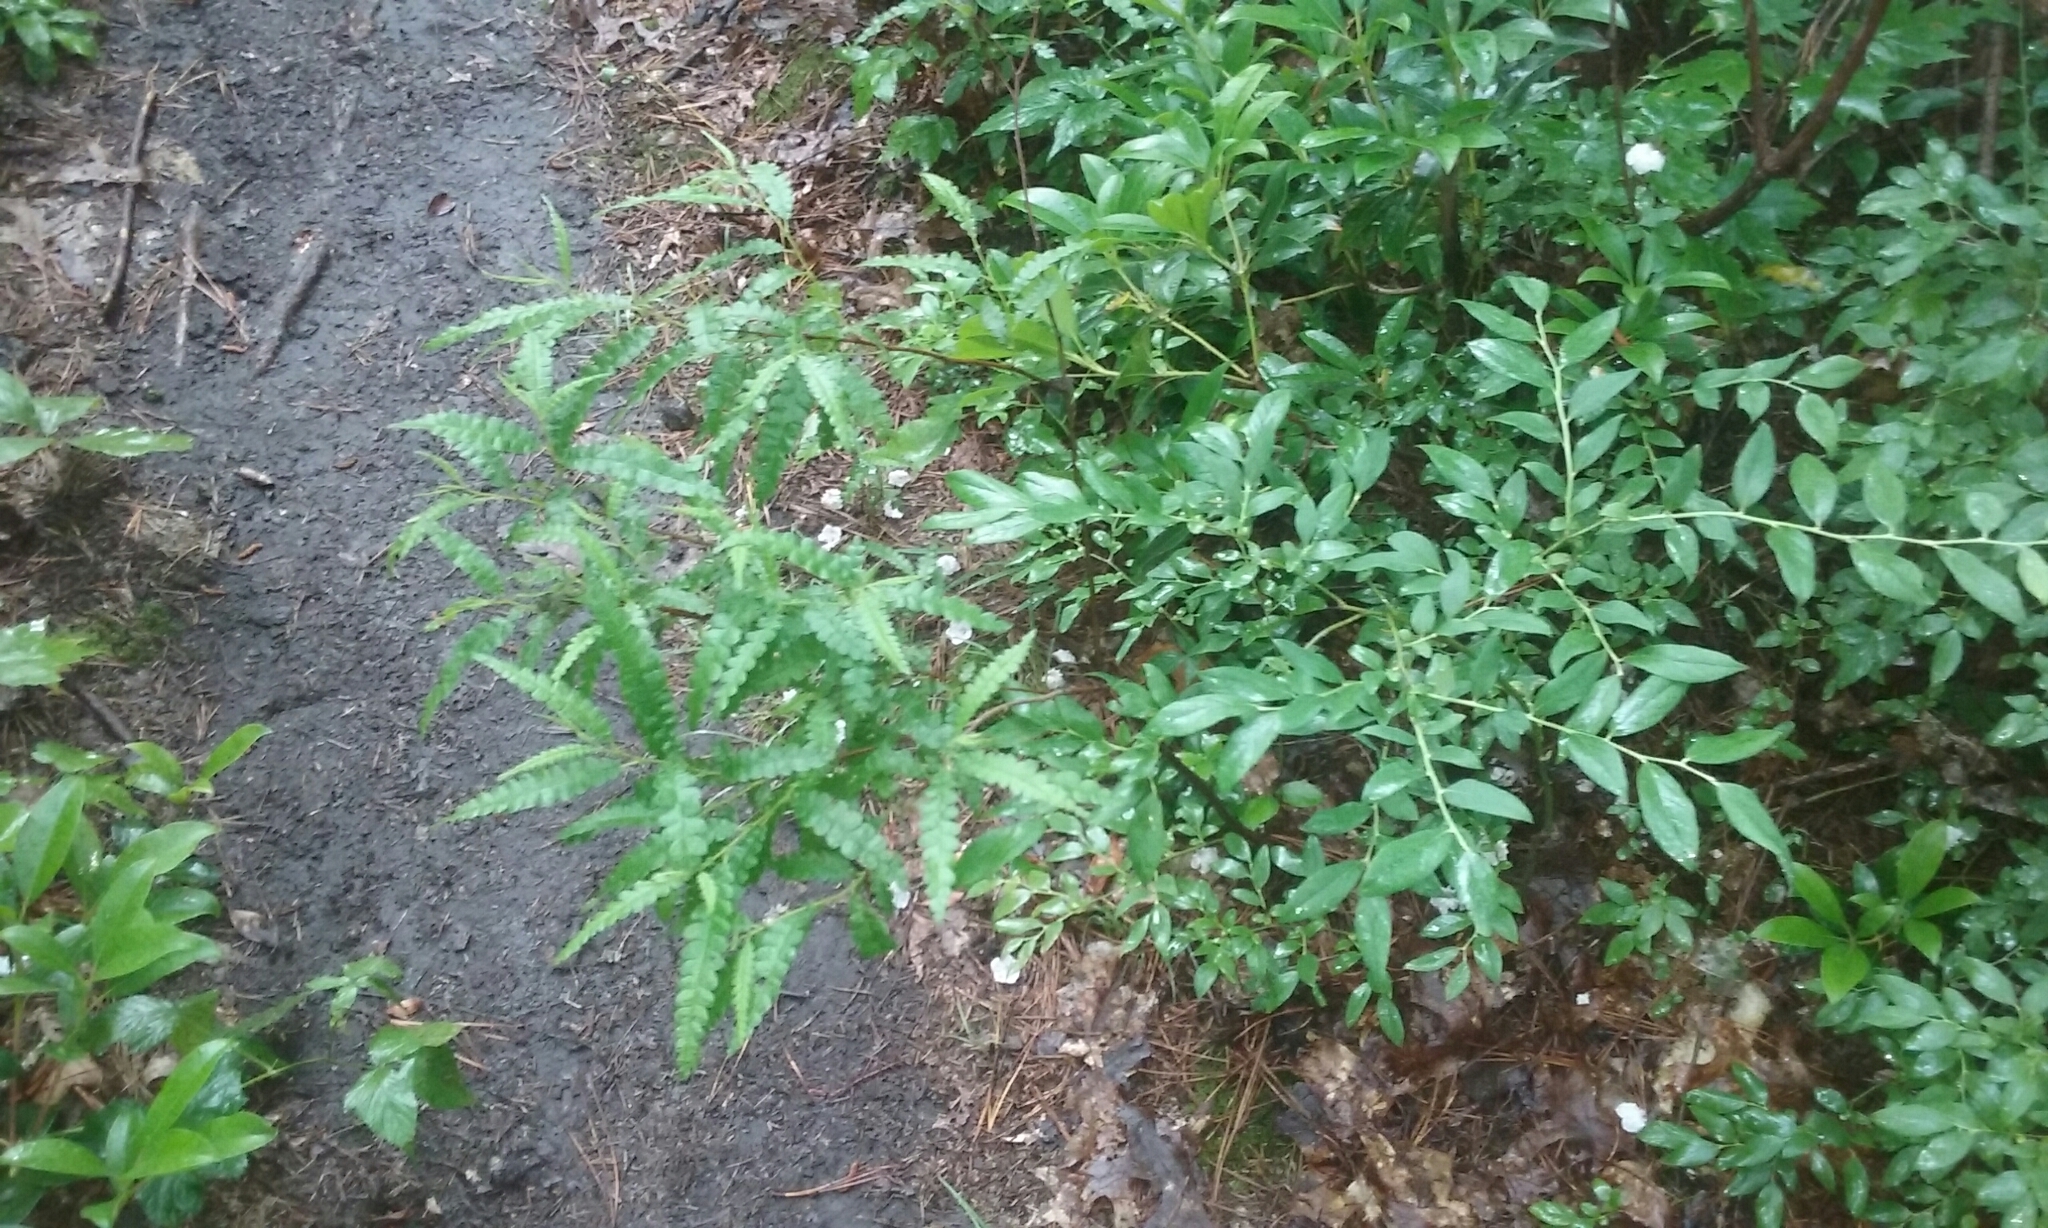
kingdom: Plantae
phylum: Tracheophyta
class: Magnoliopsida
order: Fagales
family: Myricaceae
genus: Comptonia
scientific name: Comptonia peregrina
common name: Sweet-fern
